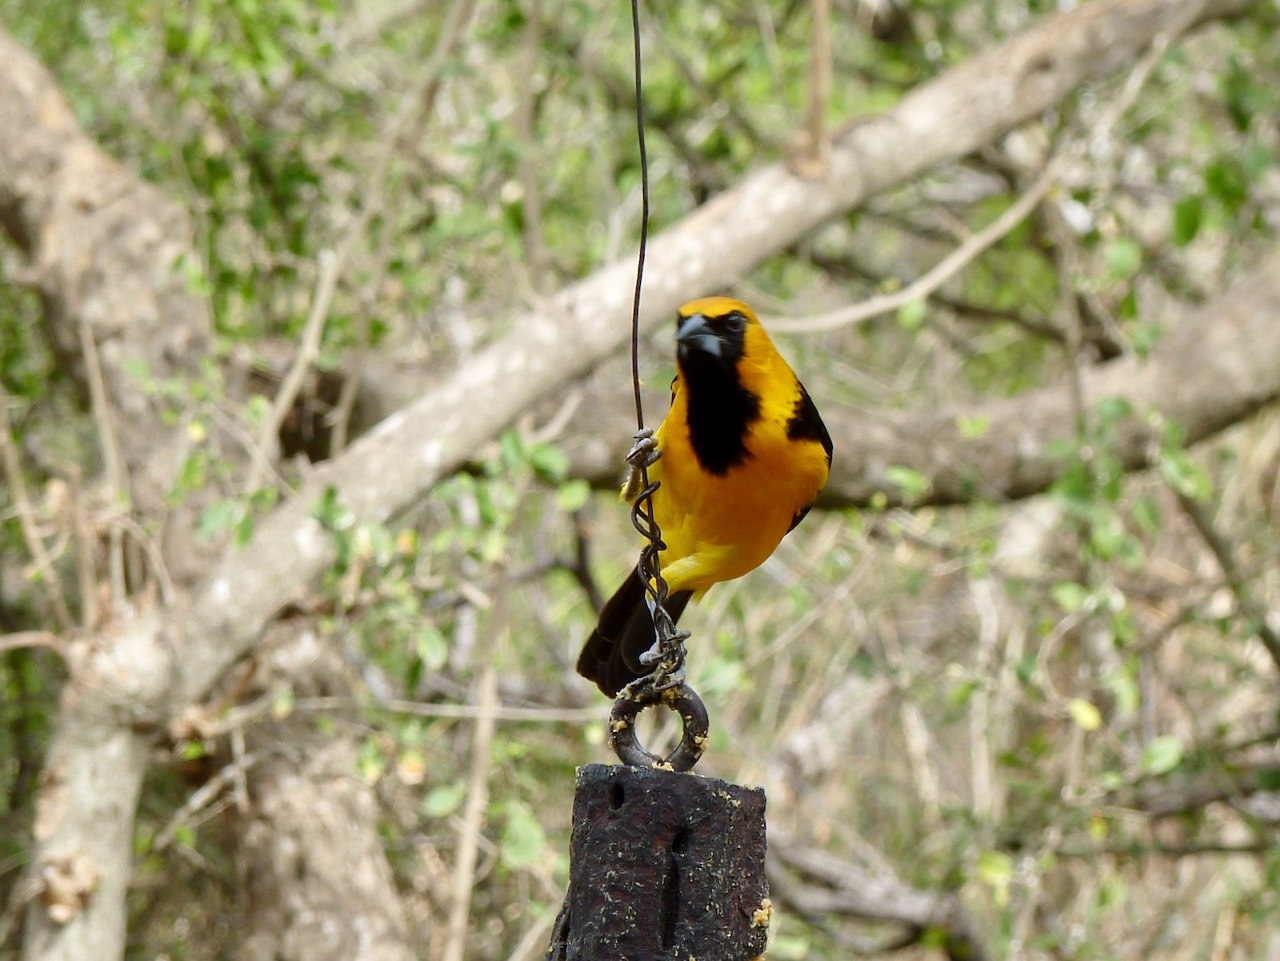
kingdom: Animalia
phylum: Chordata
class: Aves
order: Passeriformes
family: Icteridae
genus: Icterus
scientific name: Icterus gularis
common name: Altamira oriole
